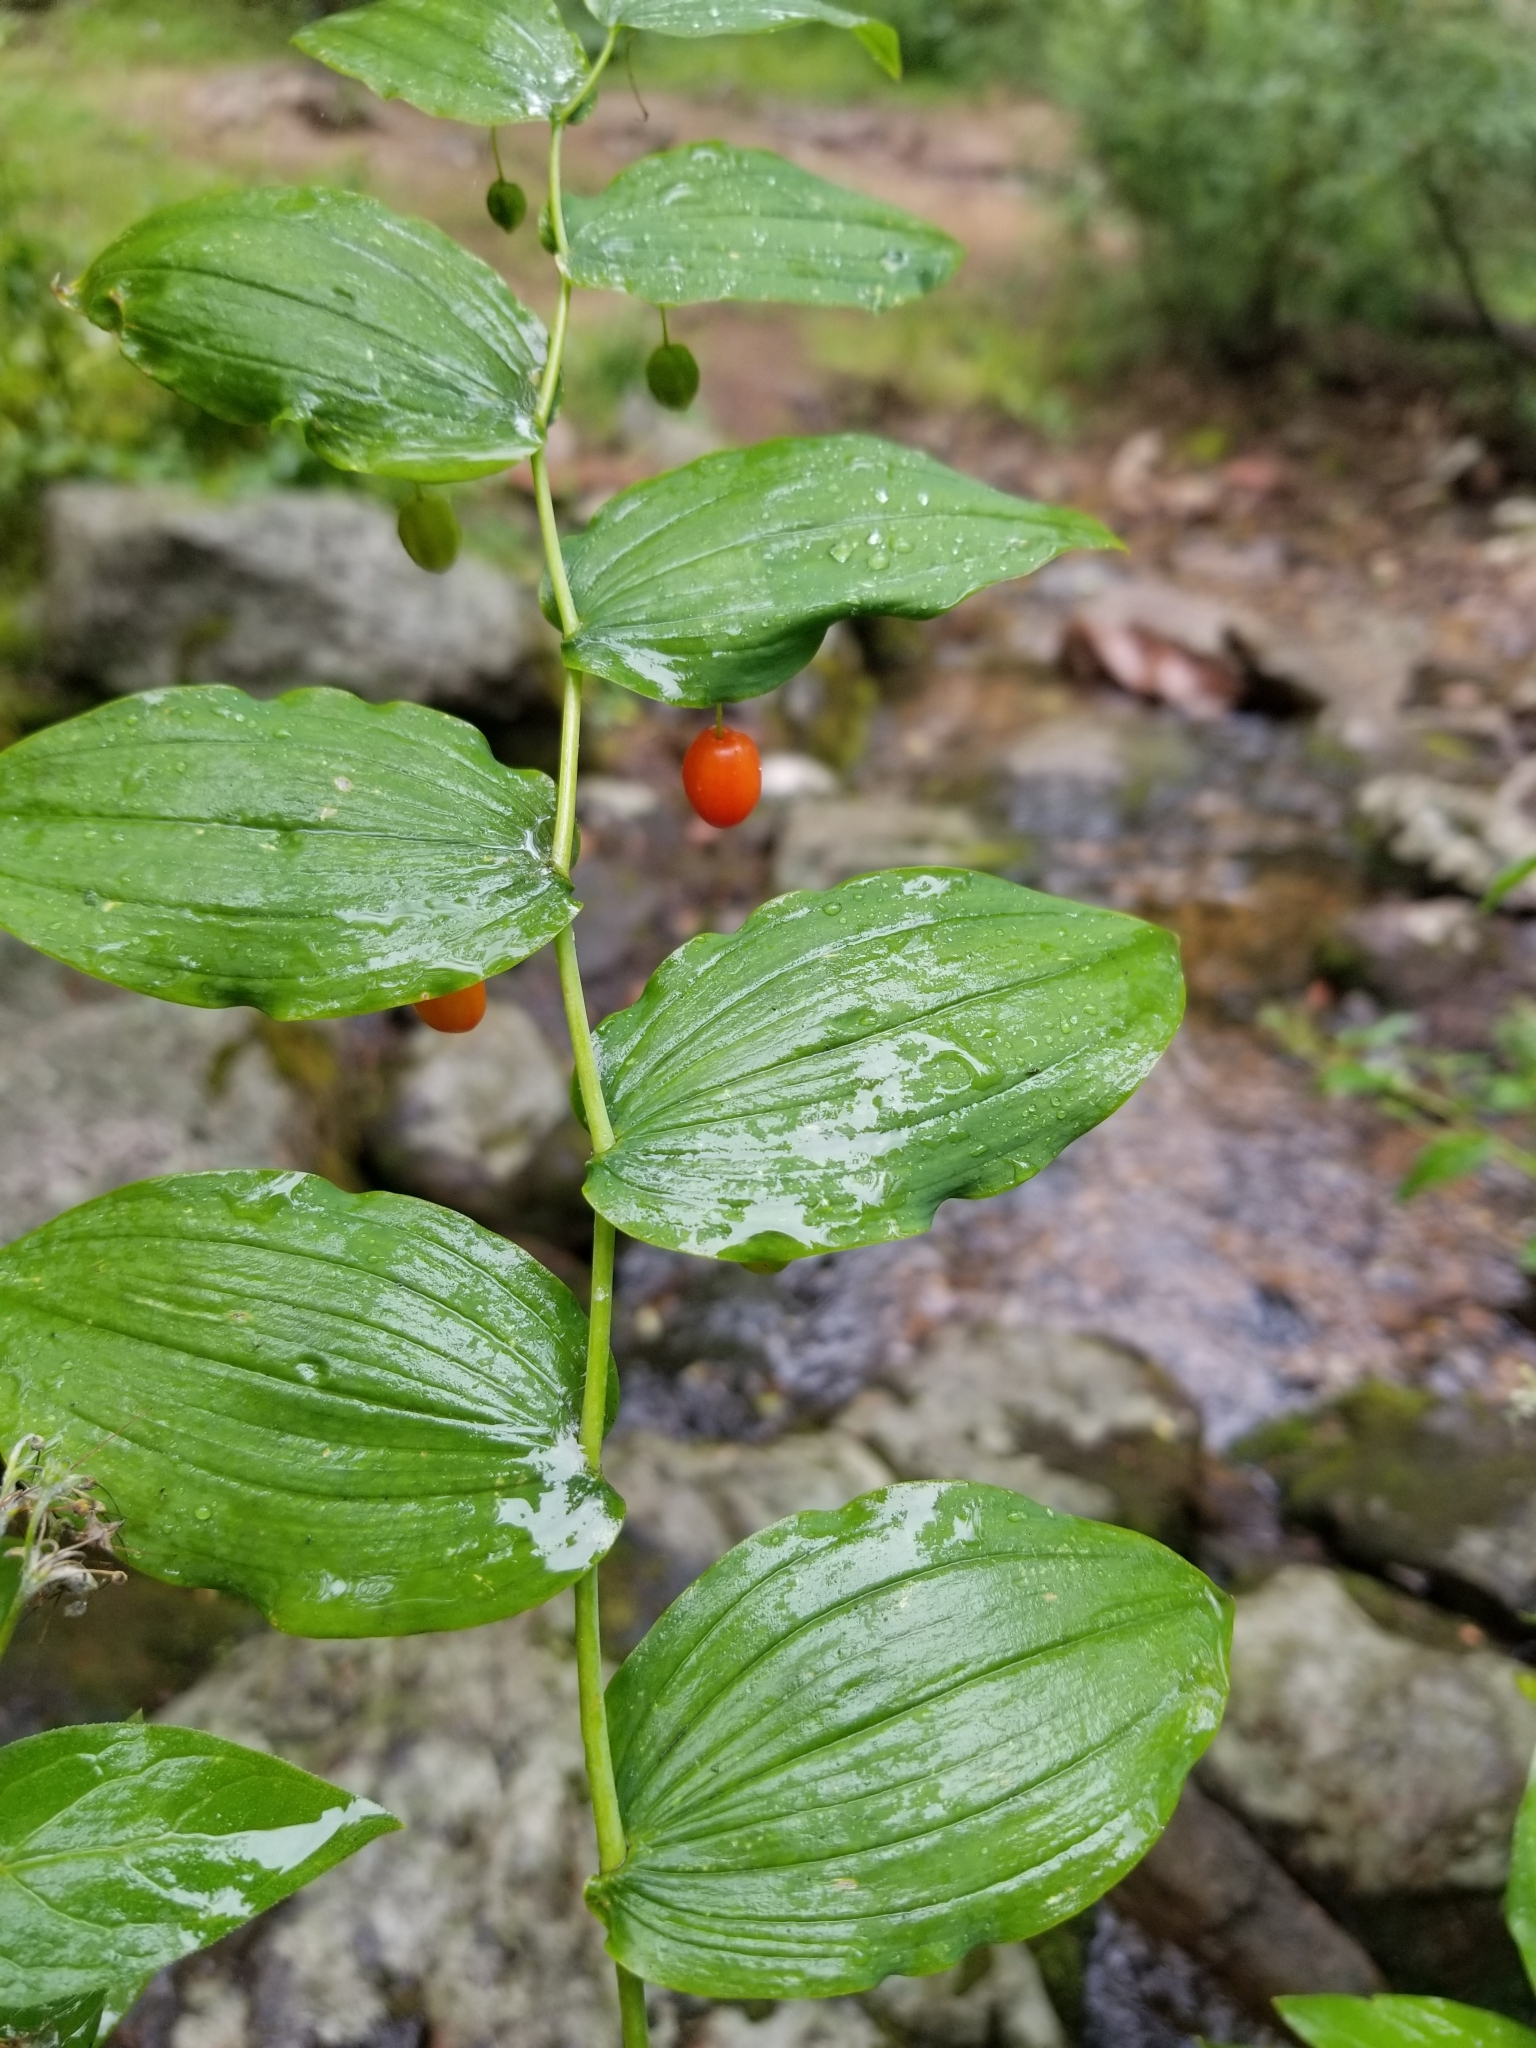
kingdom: Plantae
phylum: Tracheophyta
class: Liliopsida
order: Liliales
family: Liliaceae
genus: Streptopus
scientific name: Streptopus amplexifolius
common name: Clasp twisted stalk
